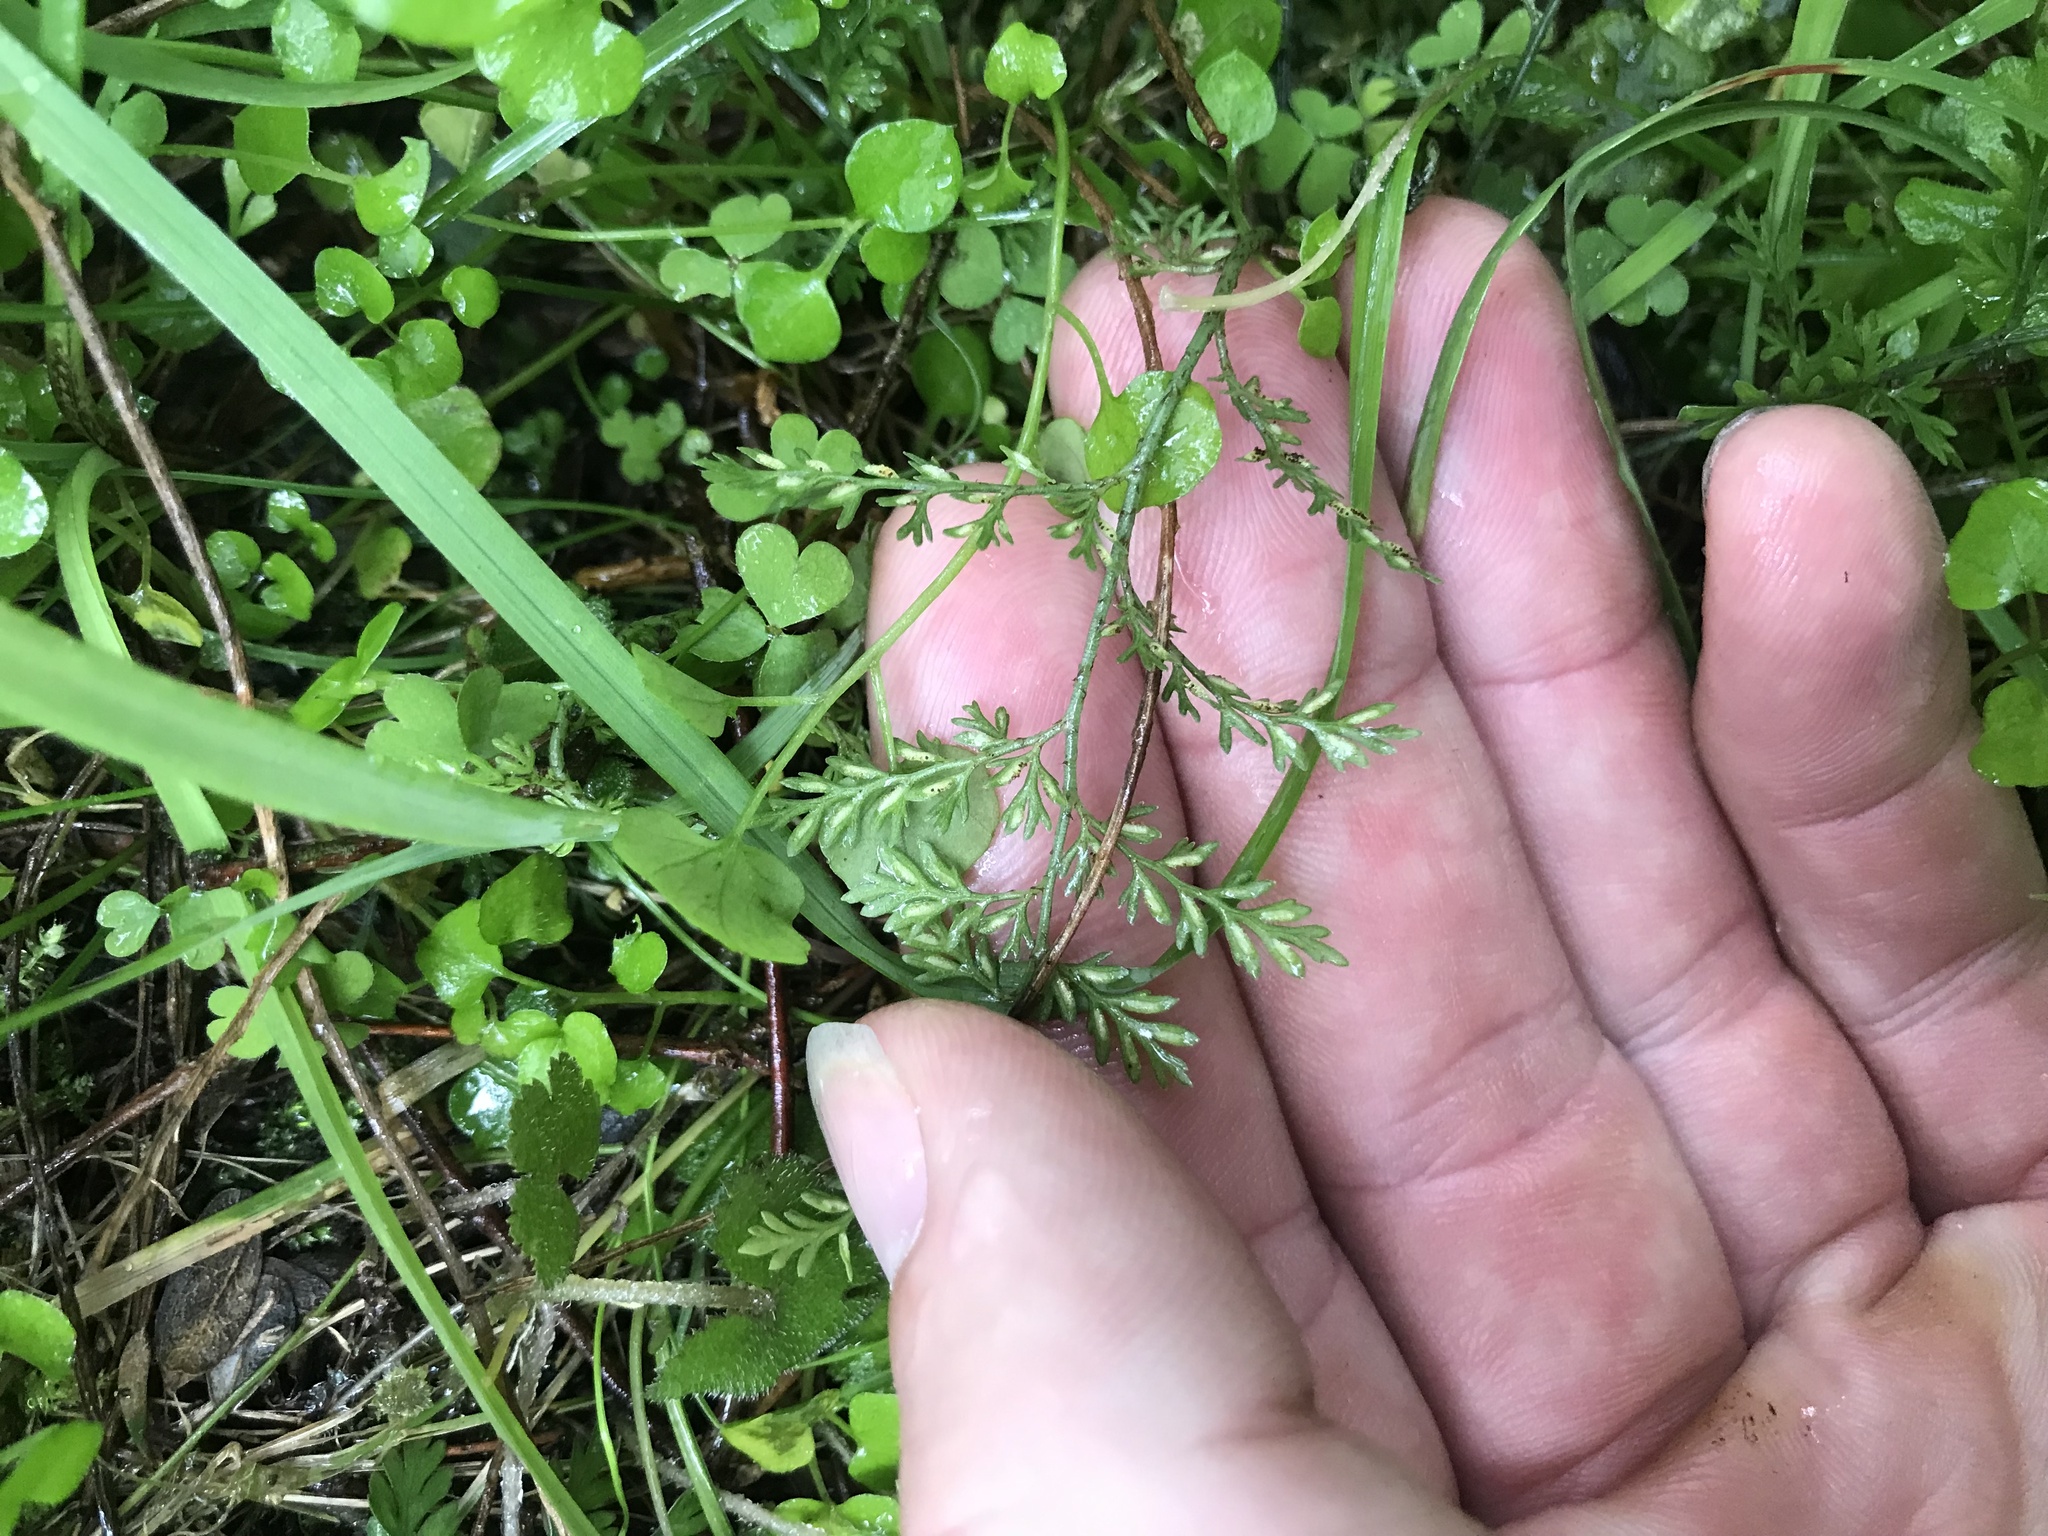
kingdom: Plantae
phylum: Tracheophyta
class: Polypodiopsida
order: Polypodiales
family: Aspleniaceae
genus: Asplenium
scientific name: Asplenium hookerianum
